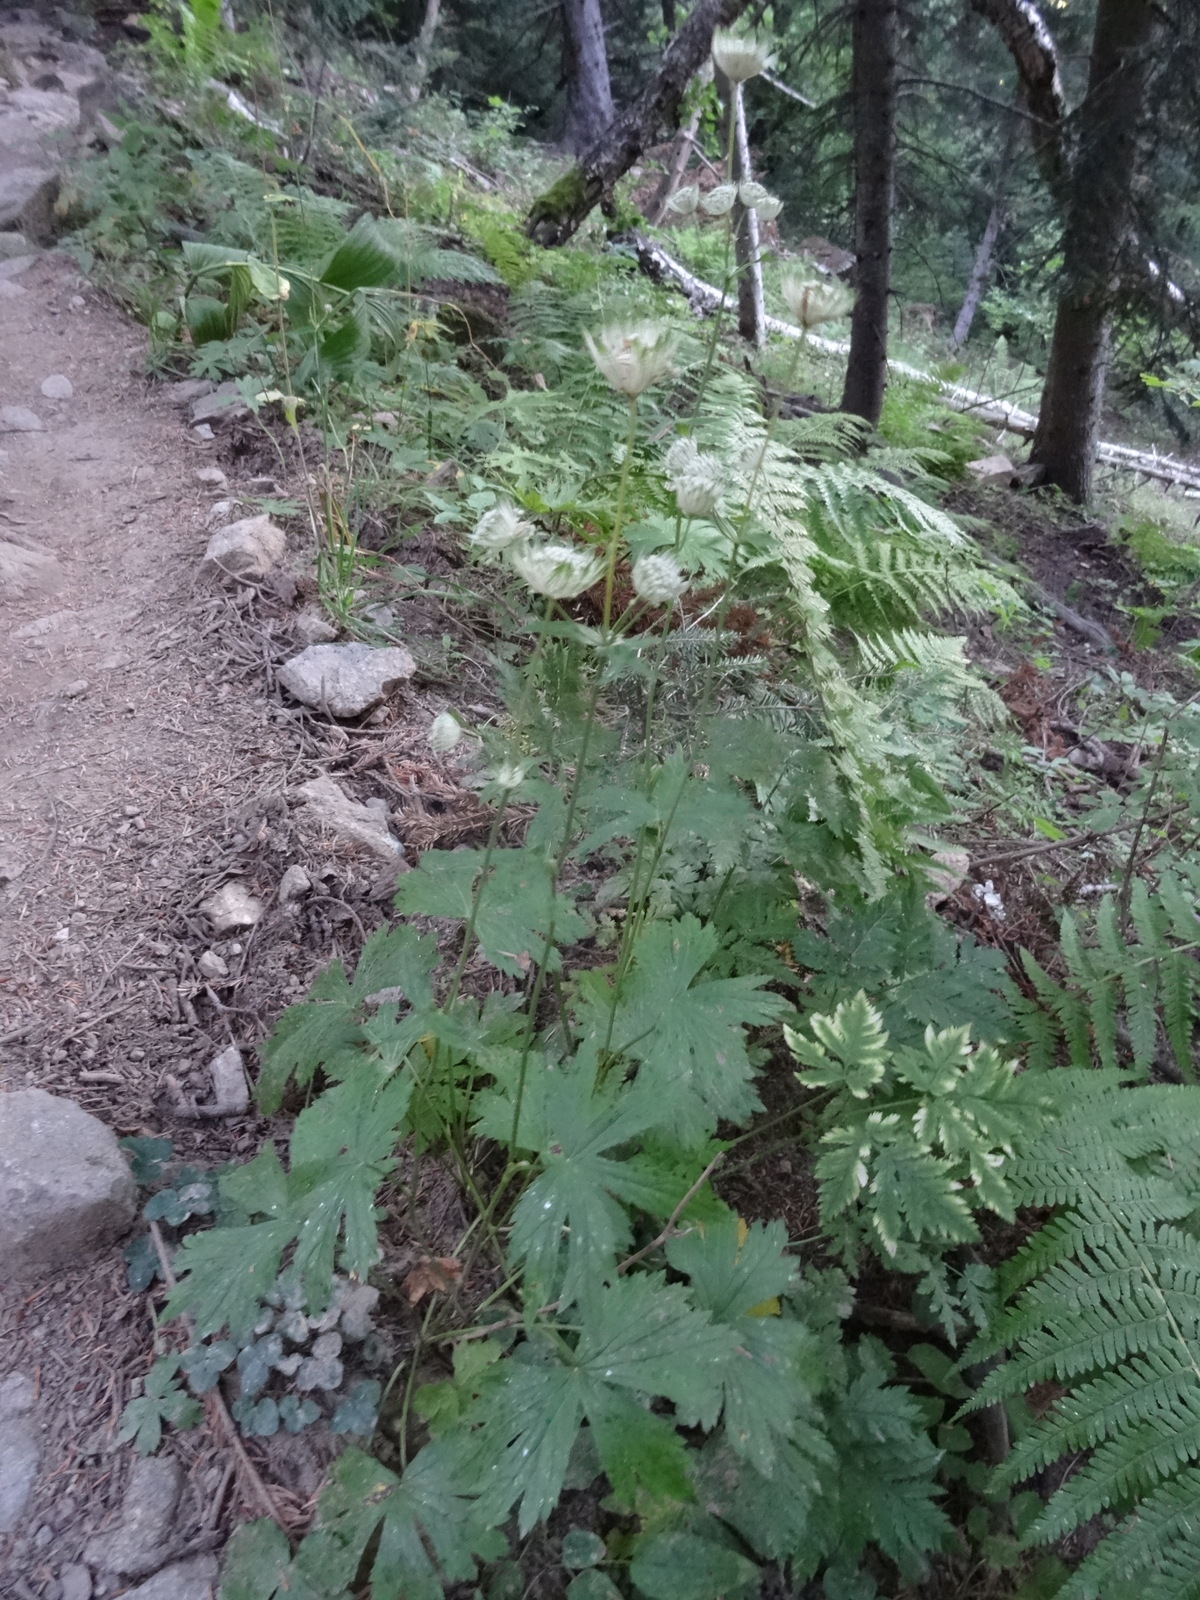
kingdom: Plantae
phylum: Tracheophyta
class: Magnoliopsida
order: Apiales
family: Apiaceae
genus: Astrantia
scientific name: Astrantia major
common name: Greater masterwort
